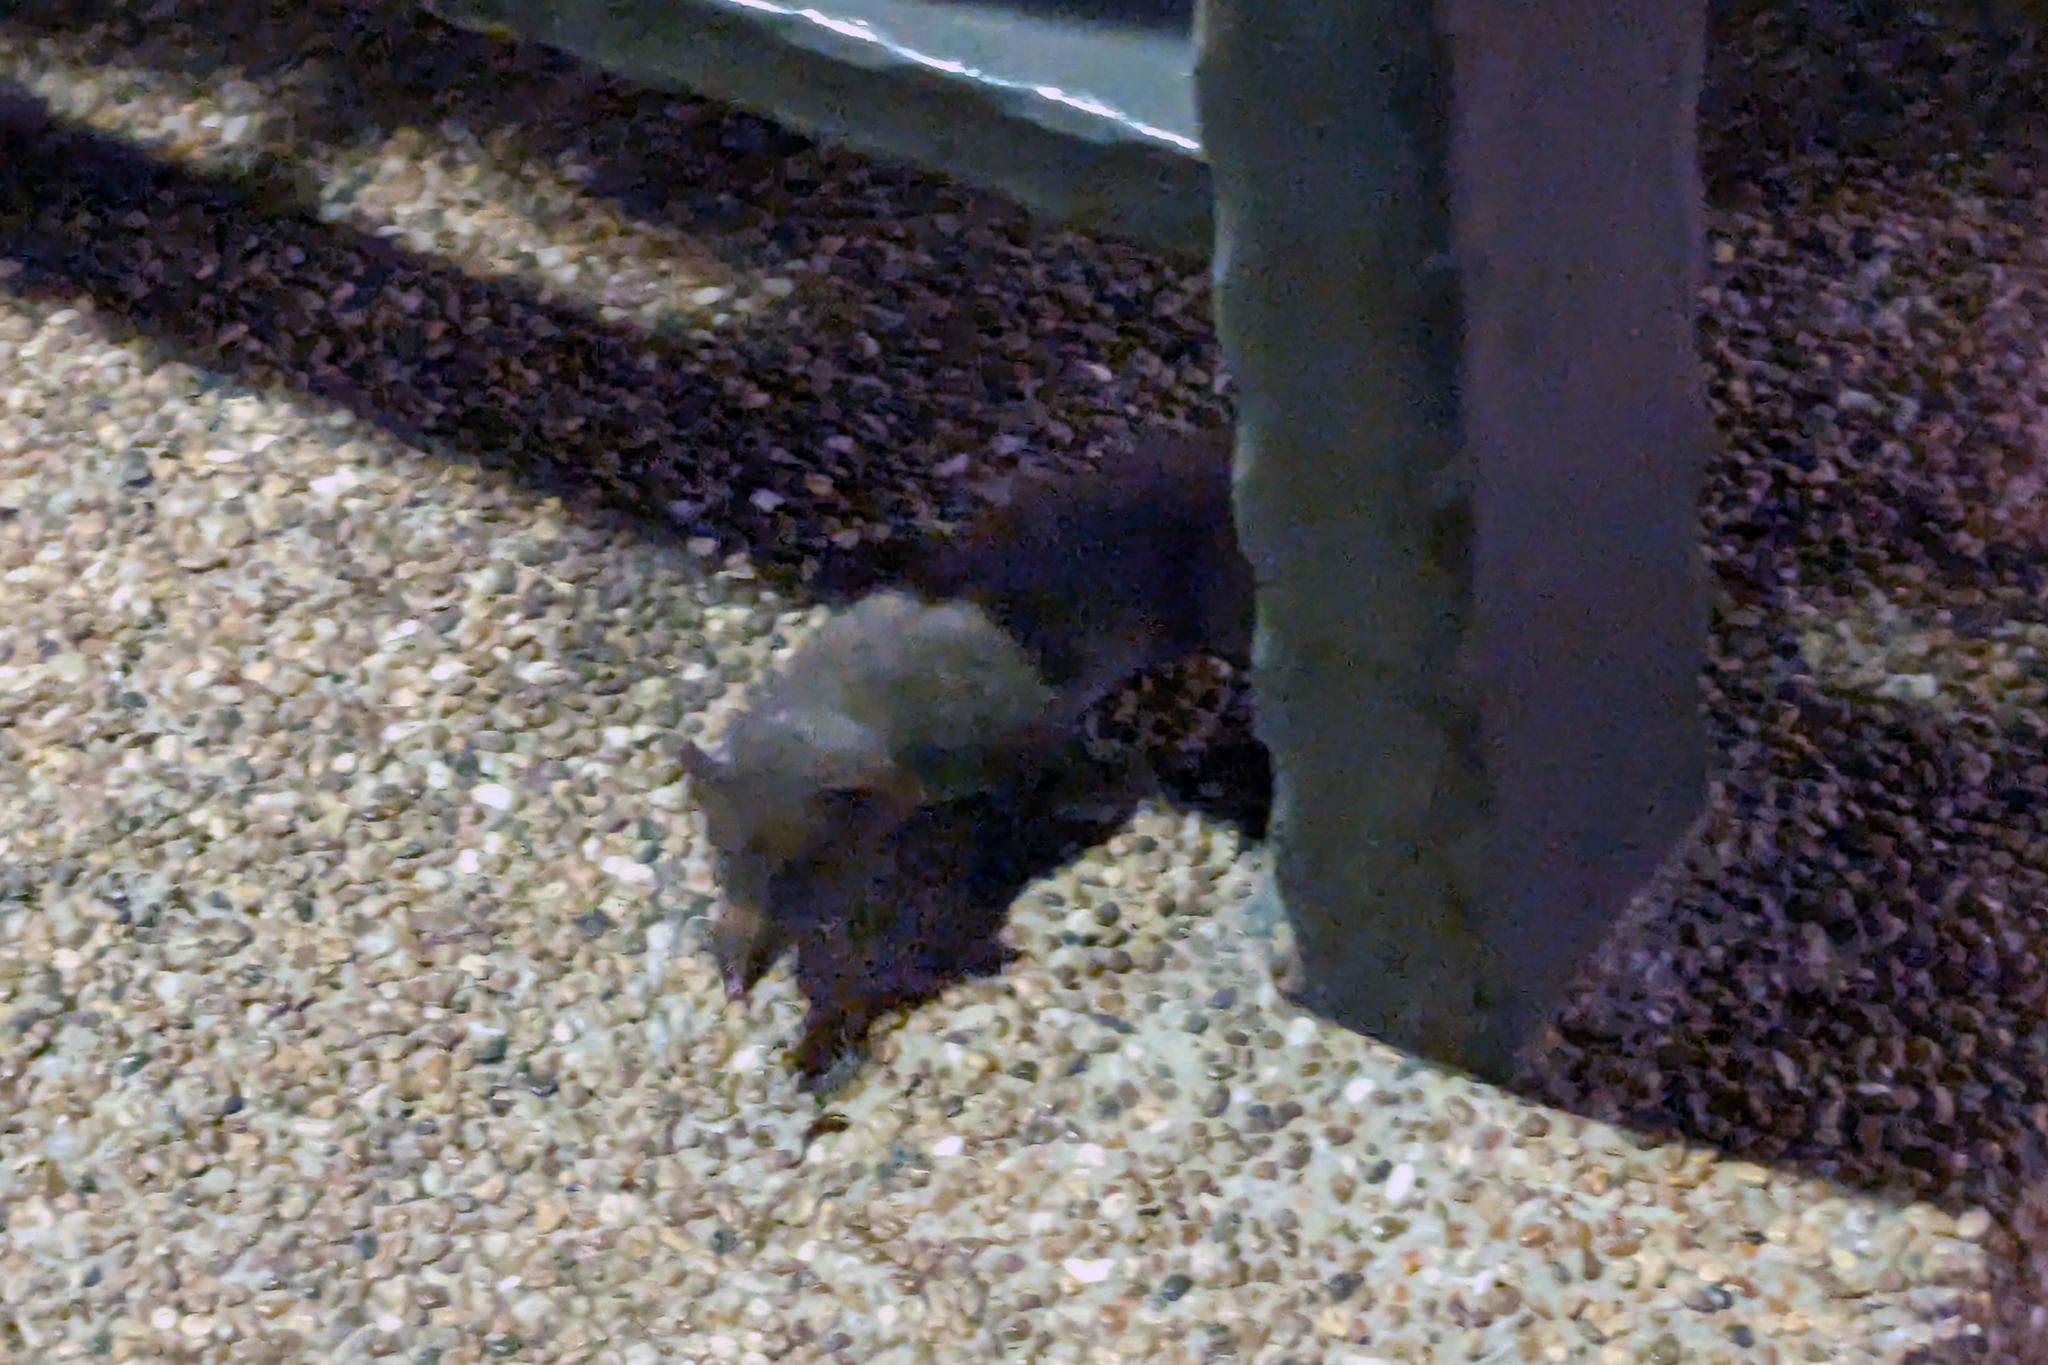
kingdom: Animalia
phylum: Chordata
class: Mammalia
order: Soricomorpha
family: Soricidae
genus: Suncus
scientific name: Suncus murinus
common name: Asian house shrew
